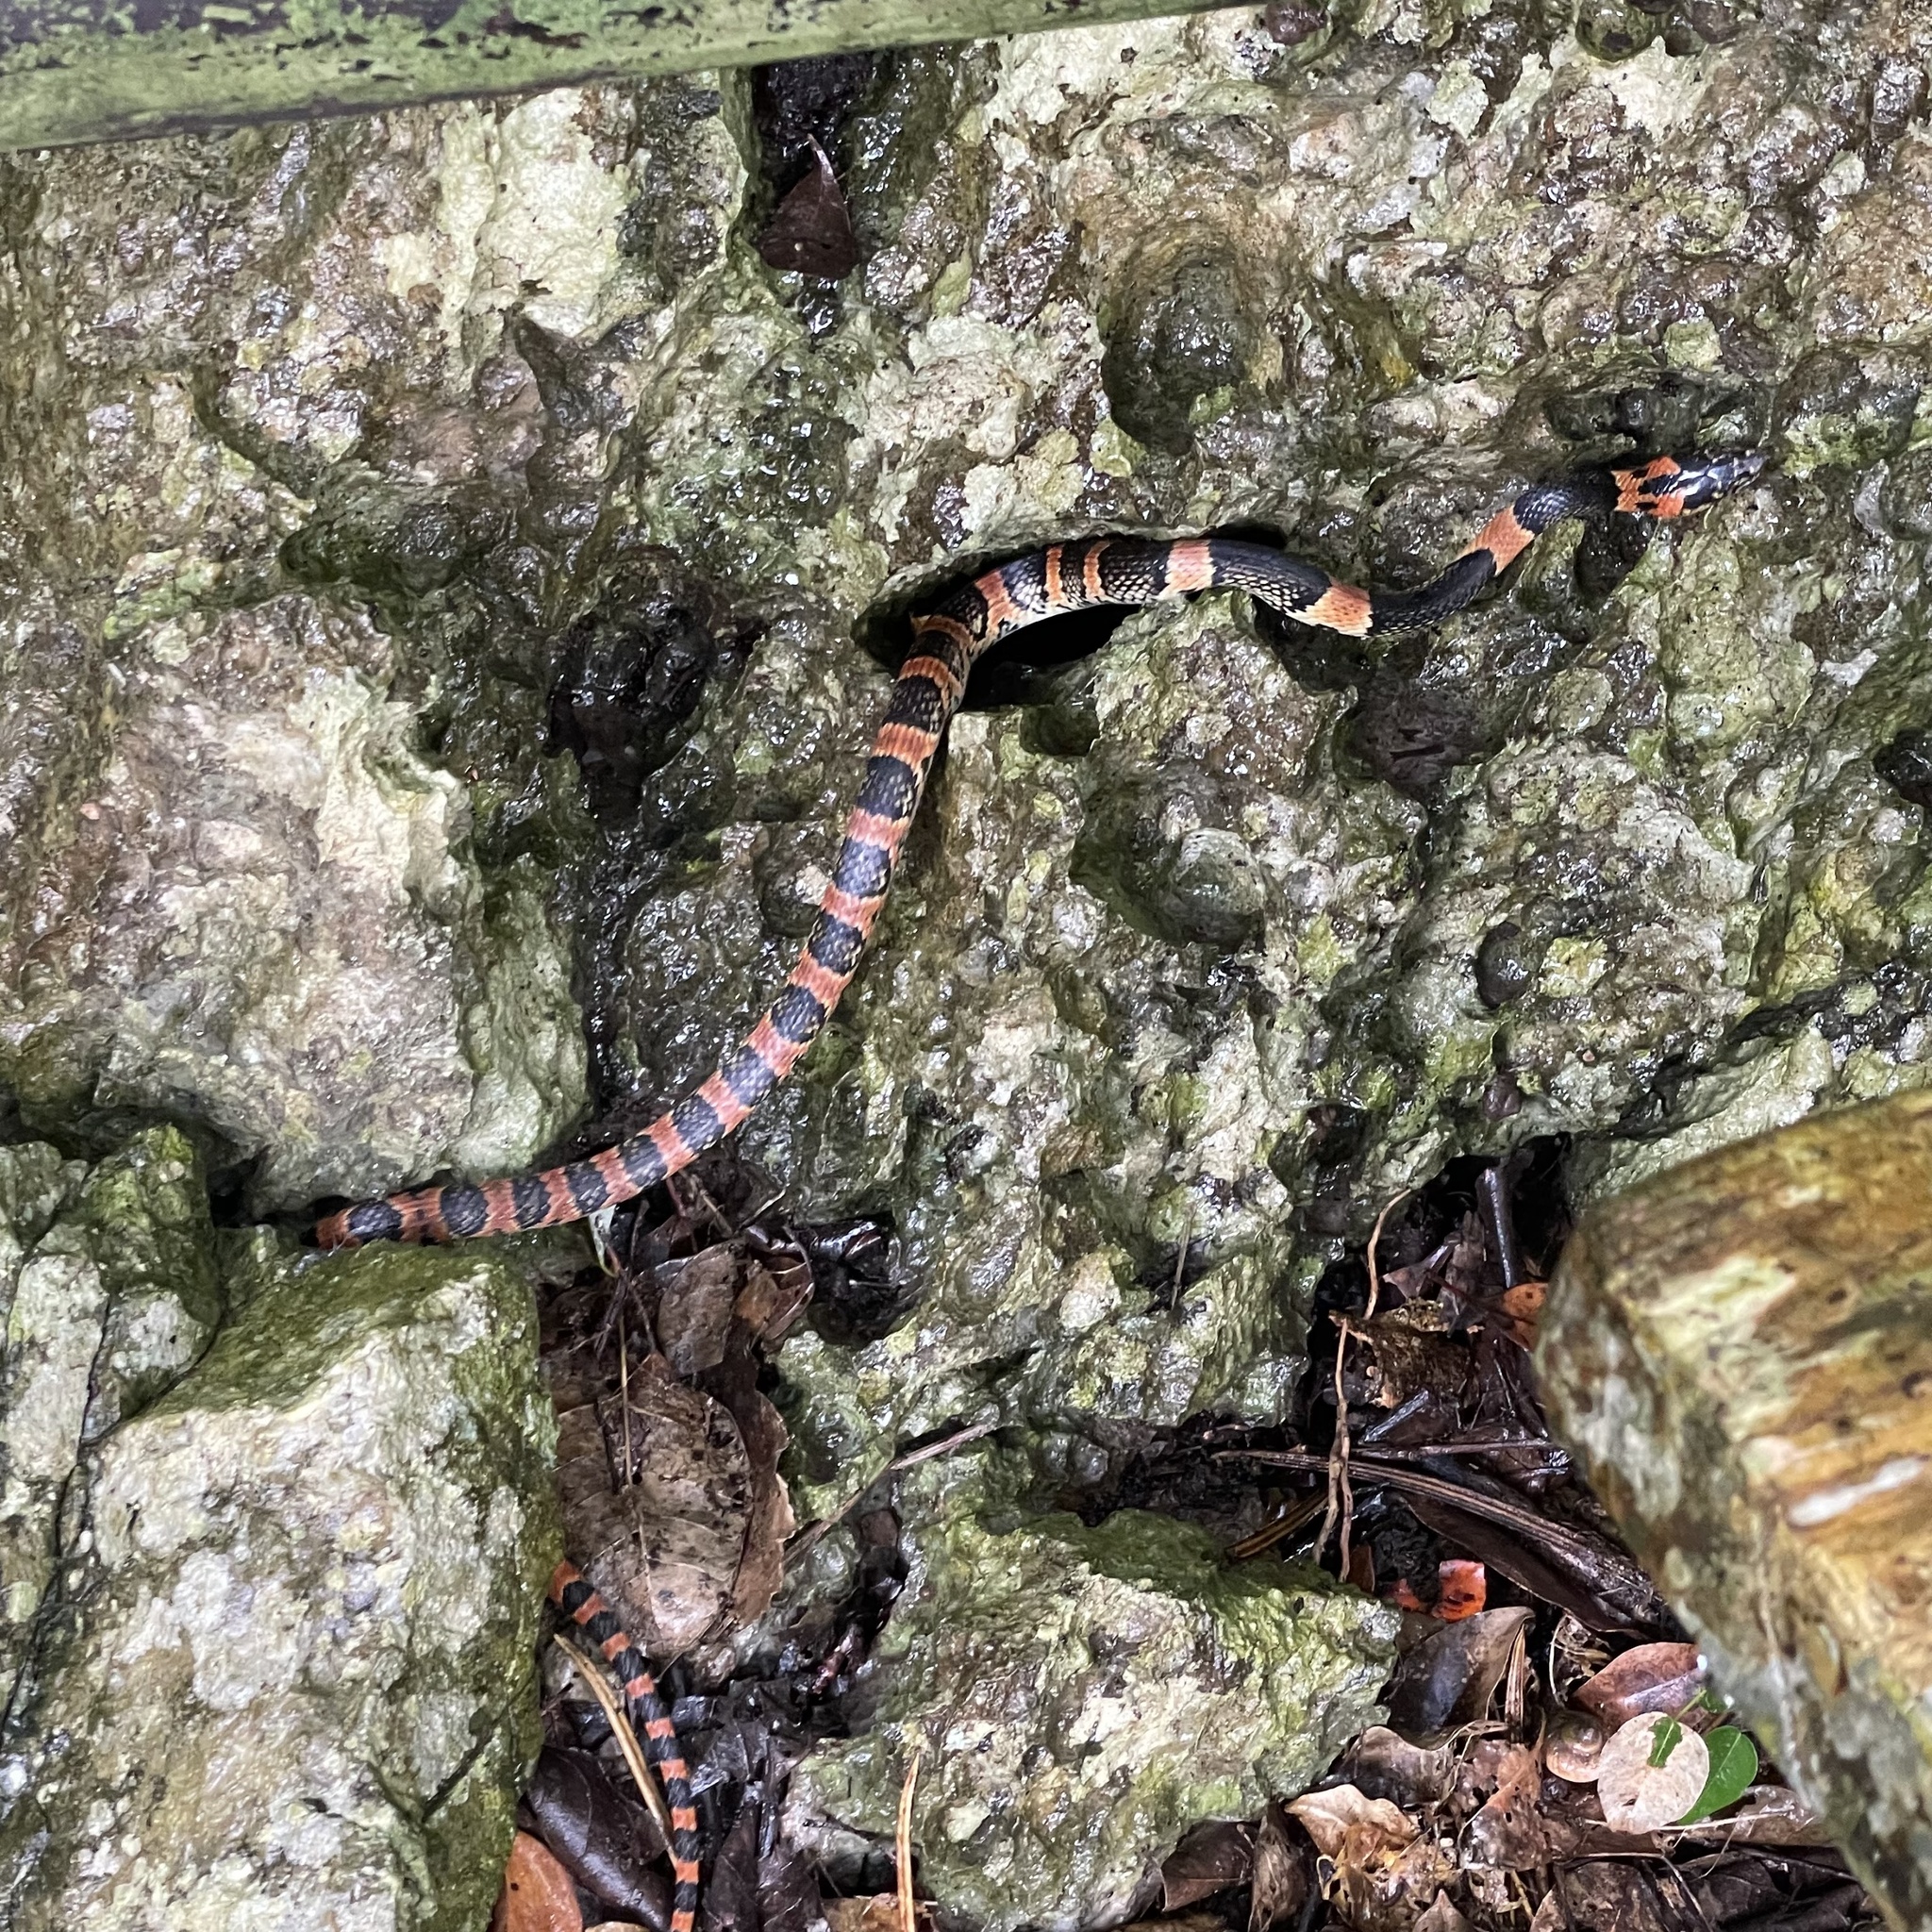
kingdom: Animalia
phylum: Chordata
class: Squamata
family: Colubridae
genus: Lycodon
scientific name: Lycodon semicarinatus
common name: Loo-choo big-tooth snake
